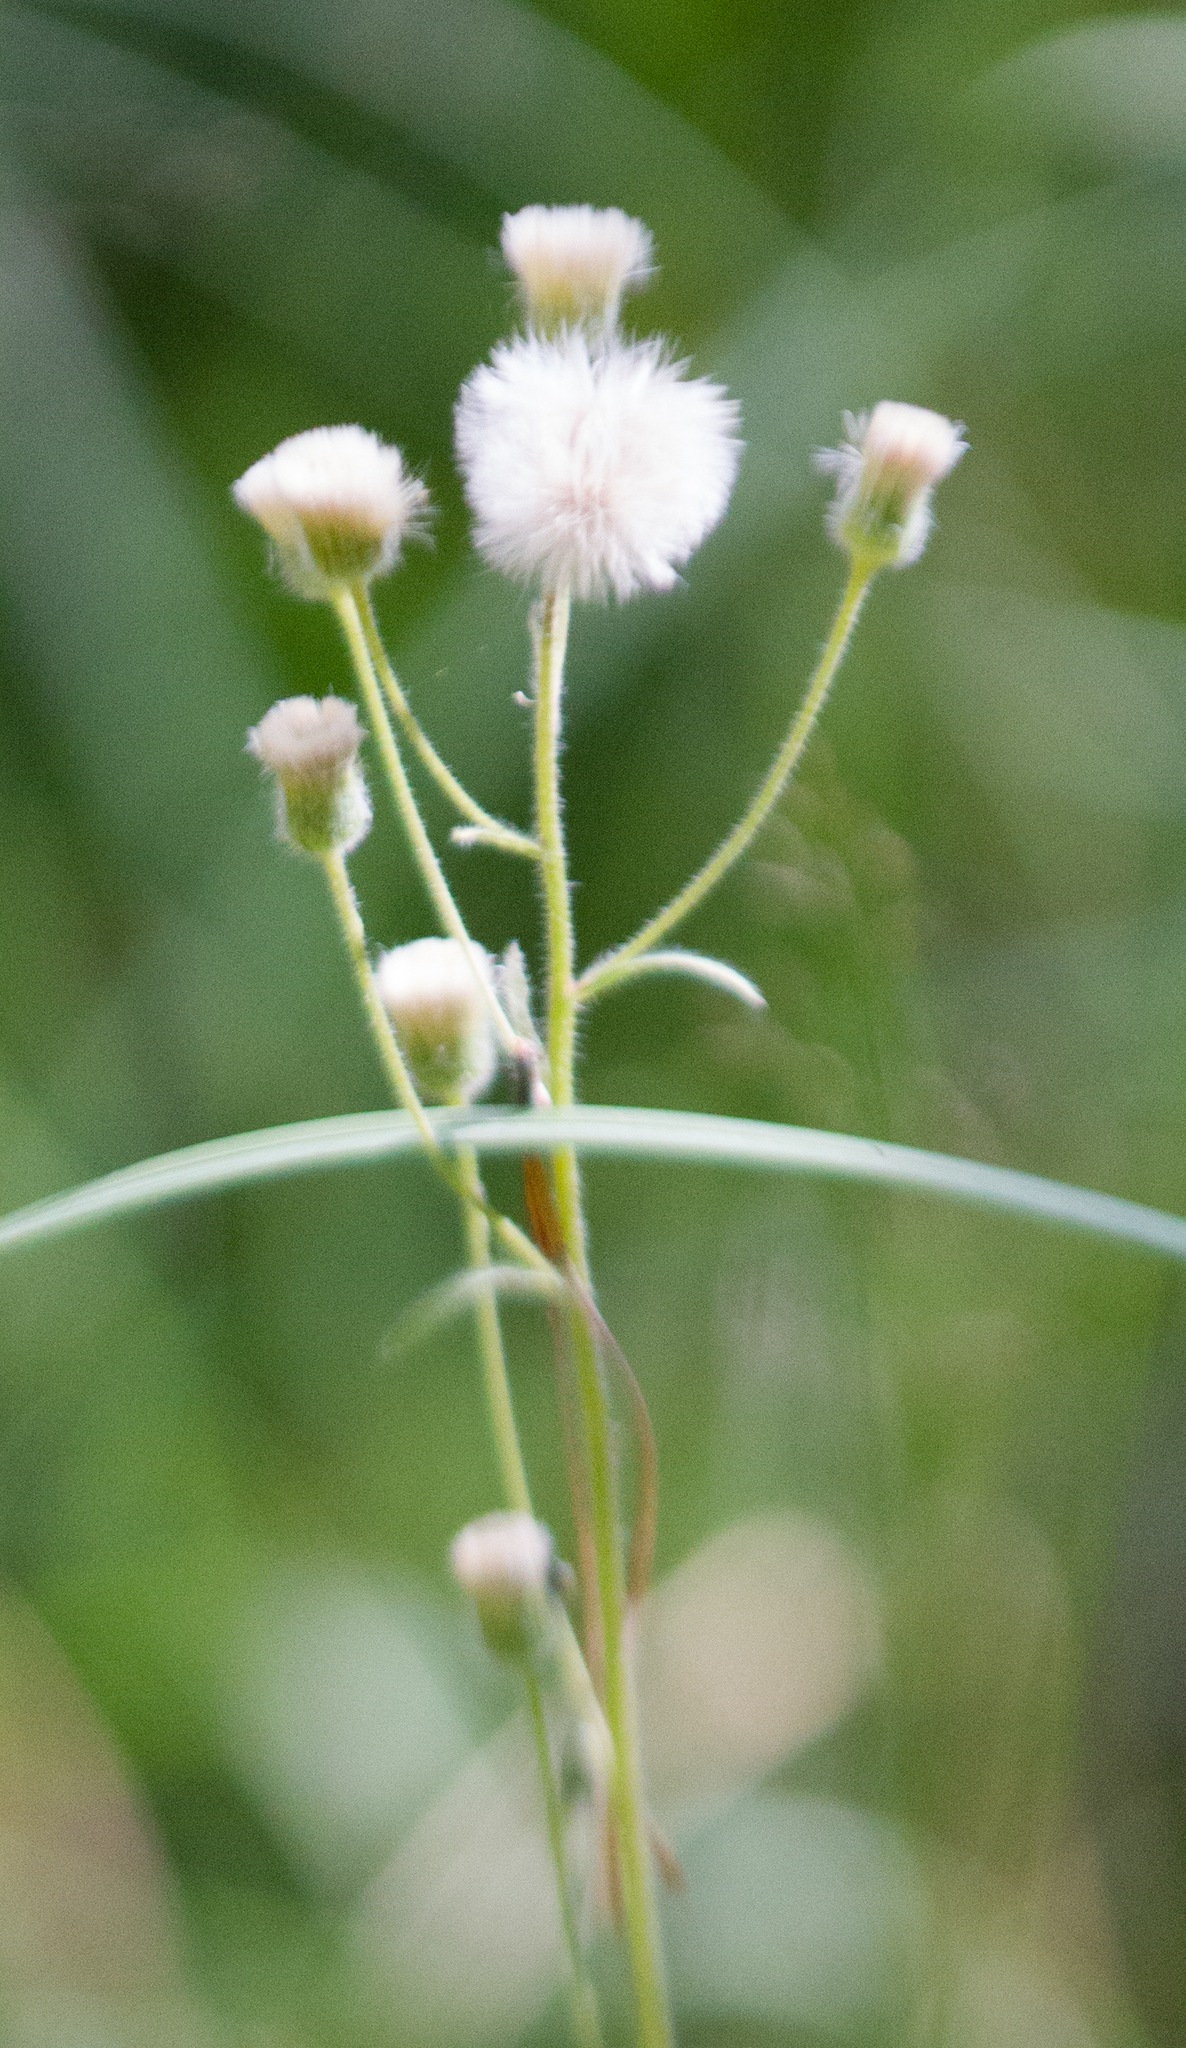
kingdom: Plantae
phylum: Tracheophyta
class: Magnoliopsida
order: Asterales
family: Asteraceae
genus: Erigeron
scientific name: Erigeron acris
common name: Blue fleabane
